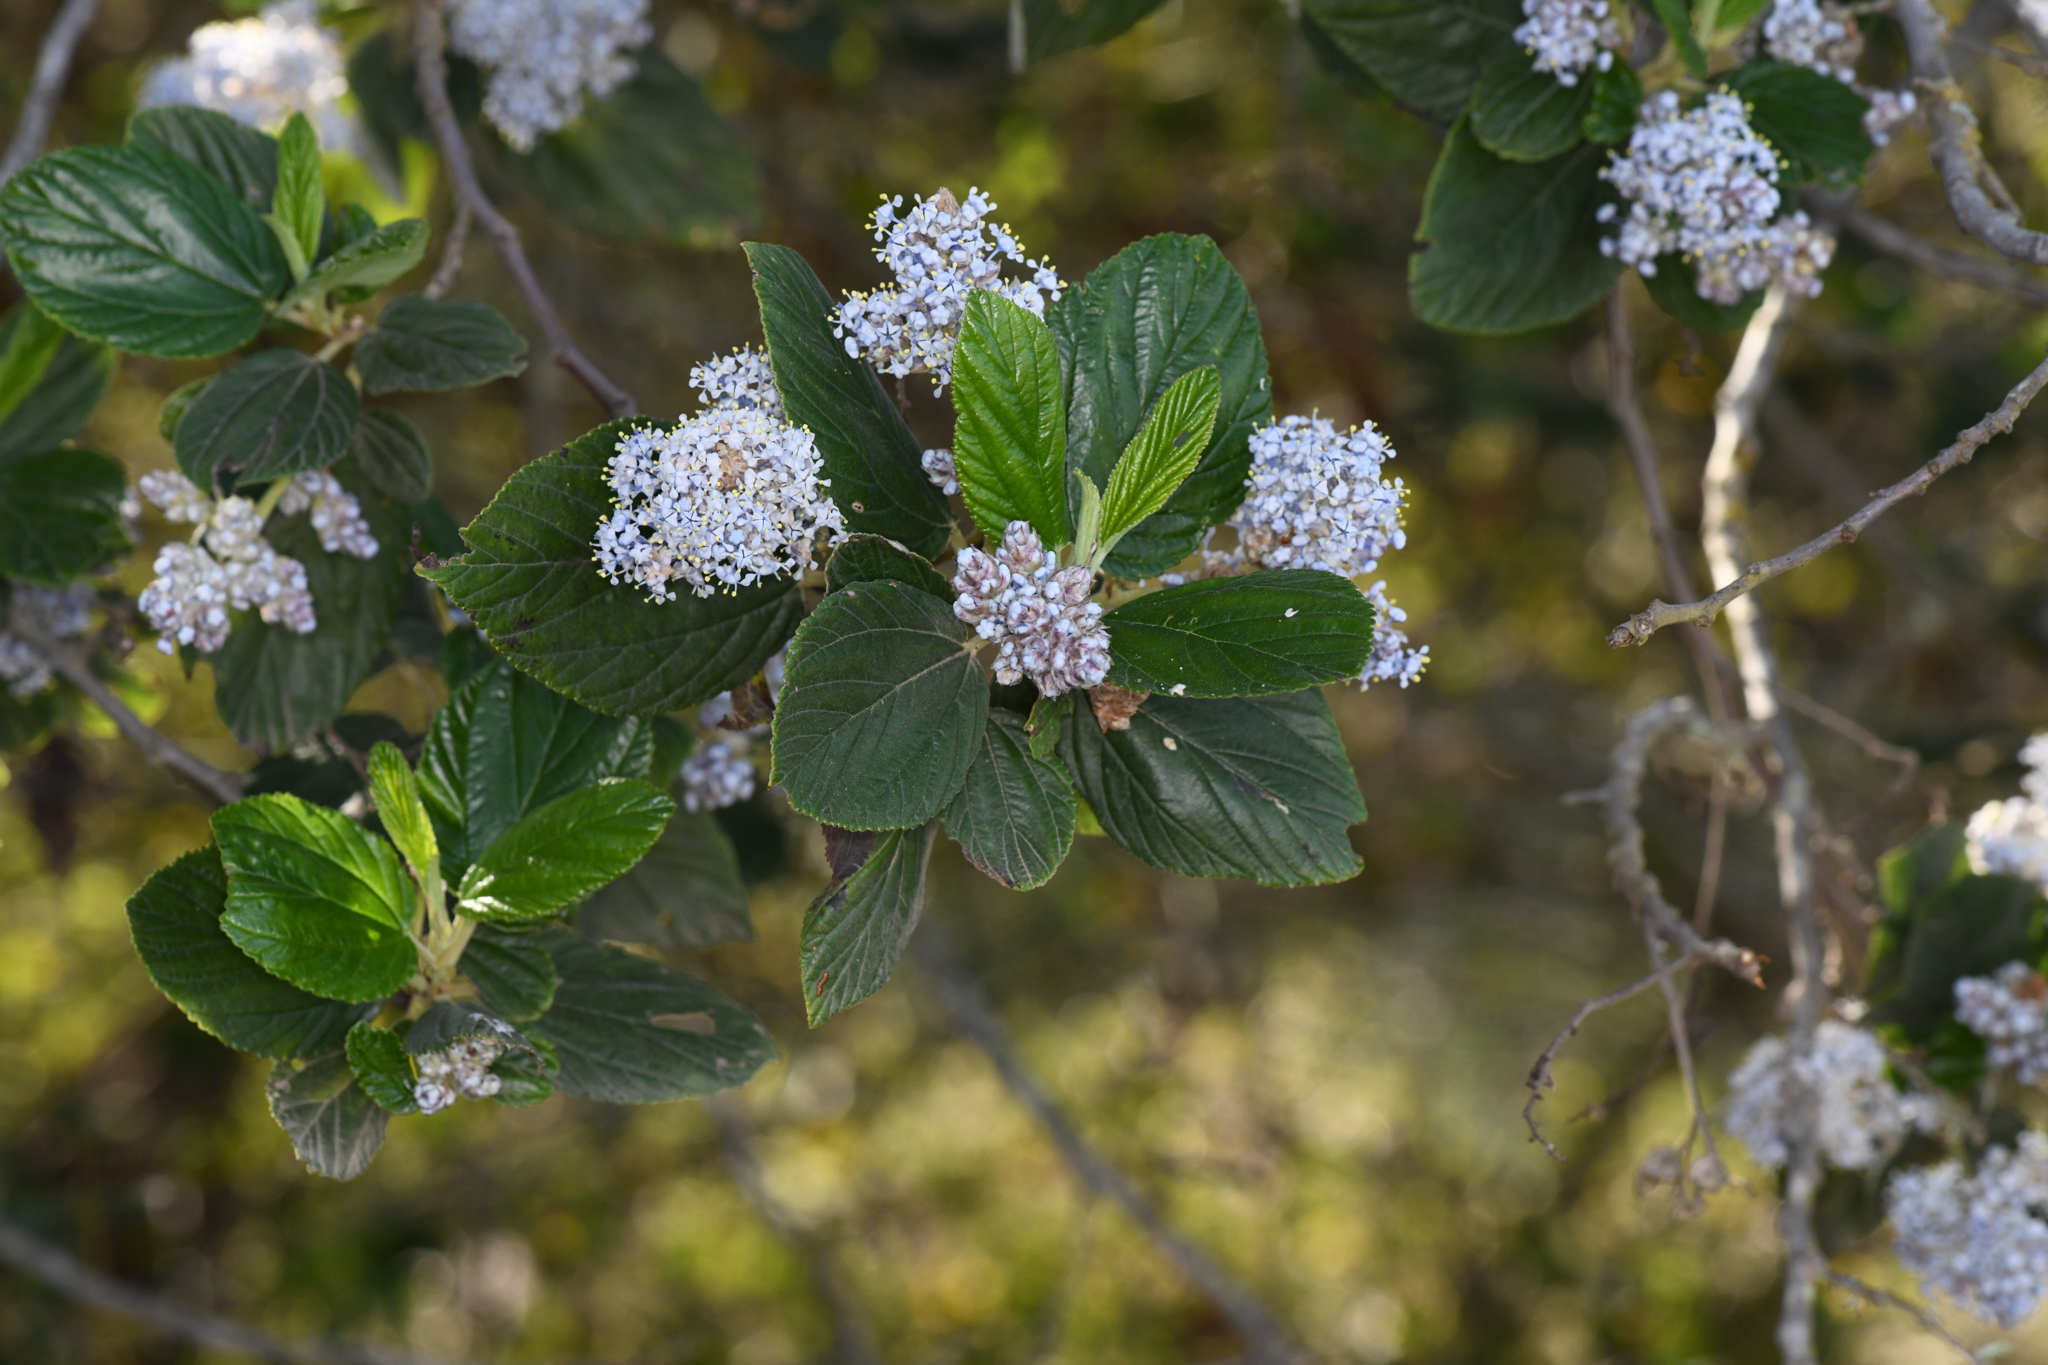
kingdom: Plantae
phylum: Tracheophyta
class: Magnoliopsida
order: Rosales
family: Rhamnaceae
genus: Ceanothus
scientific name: Ceanothus arboreus
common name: Catalina mountain-lilac
